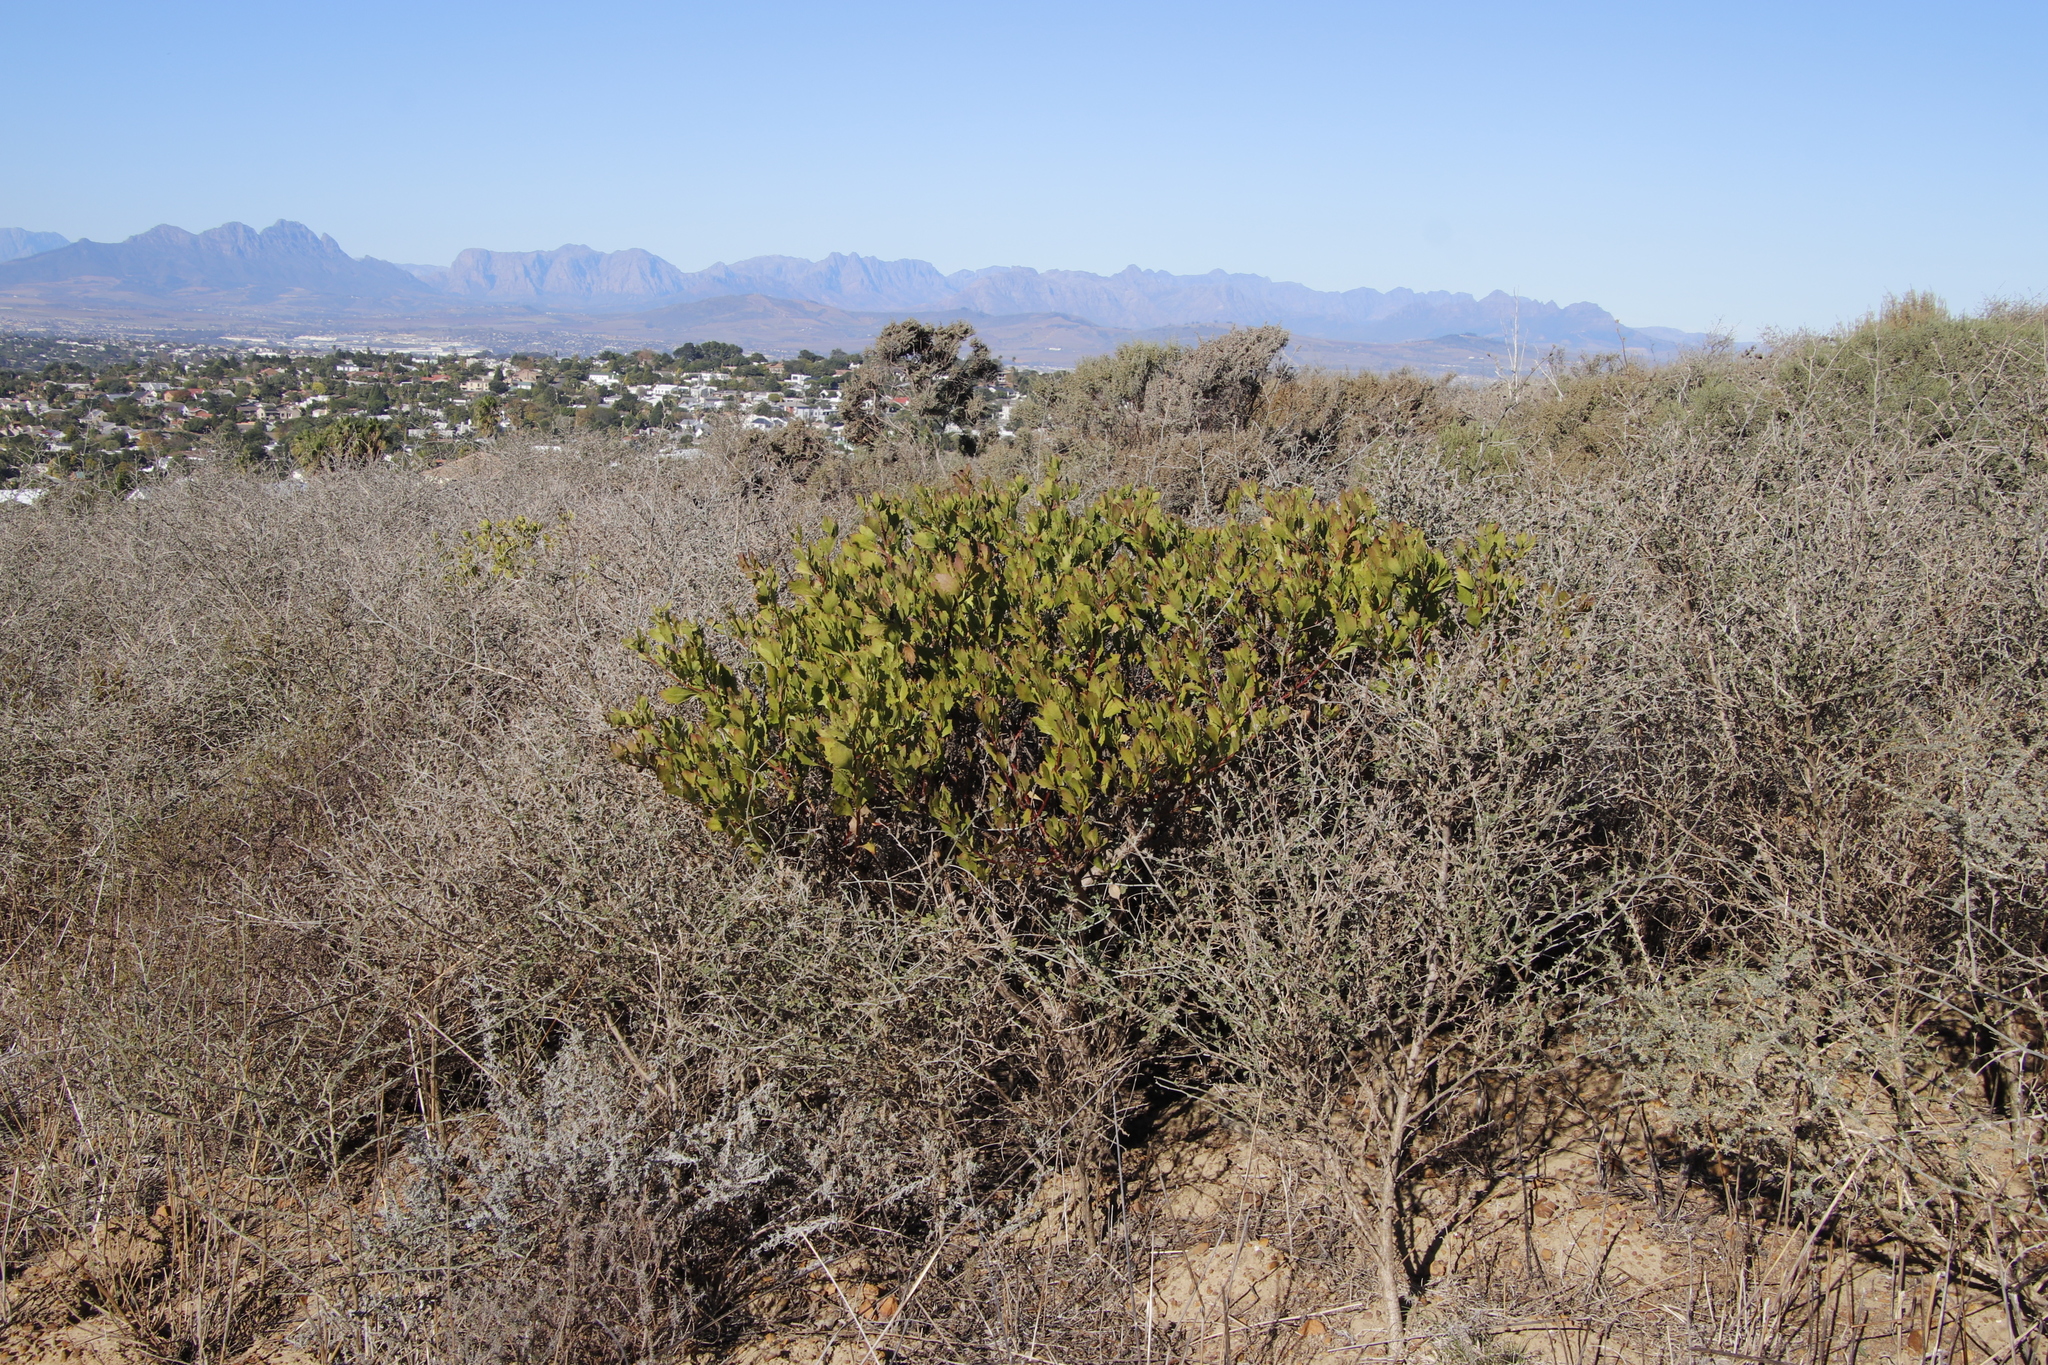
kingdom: Plantae
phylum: Tracheophyta
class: Magnoliopsida
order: Asterales
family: Asteraceae
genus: Osteospermum
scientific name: Osteospermum moniliferum
